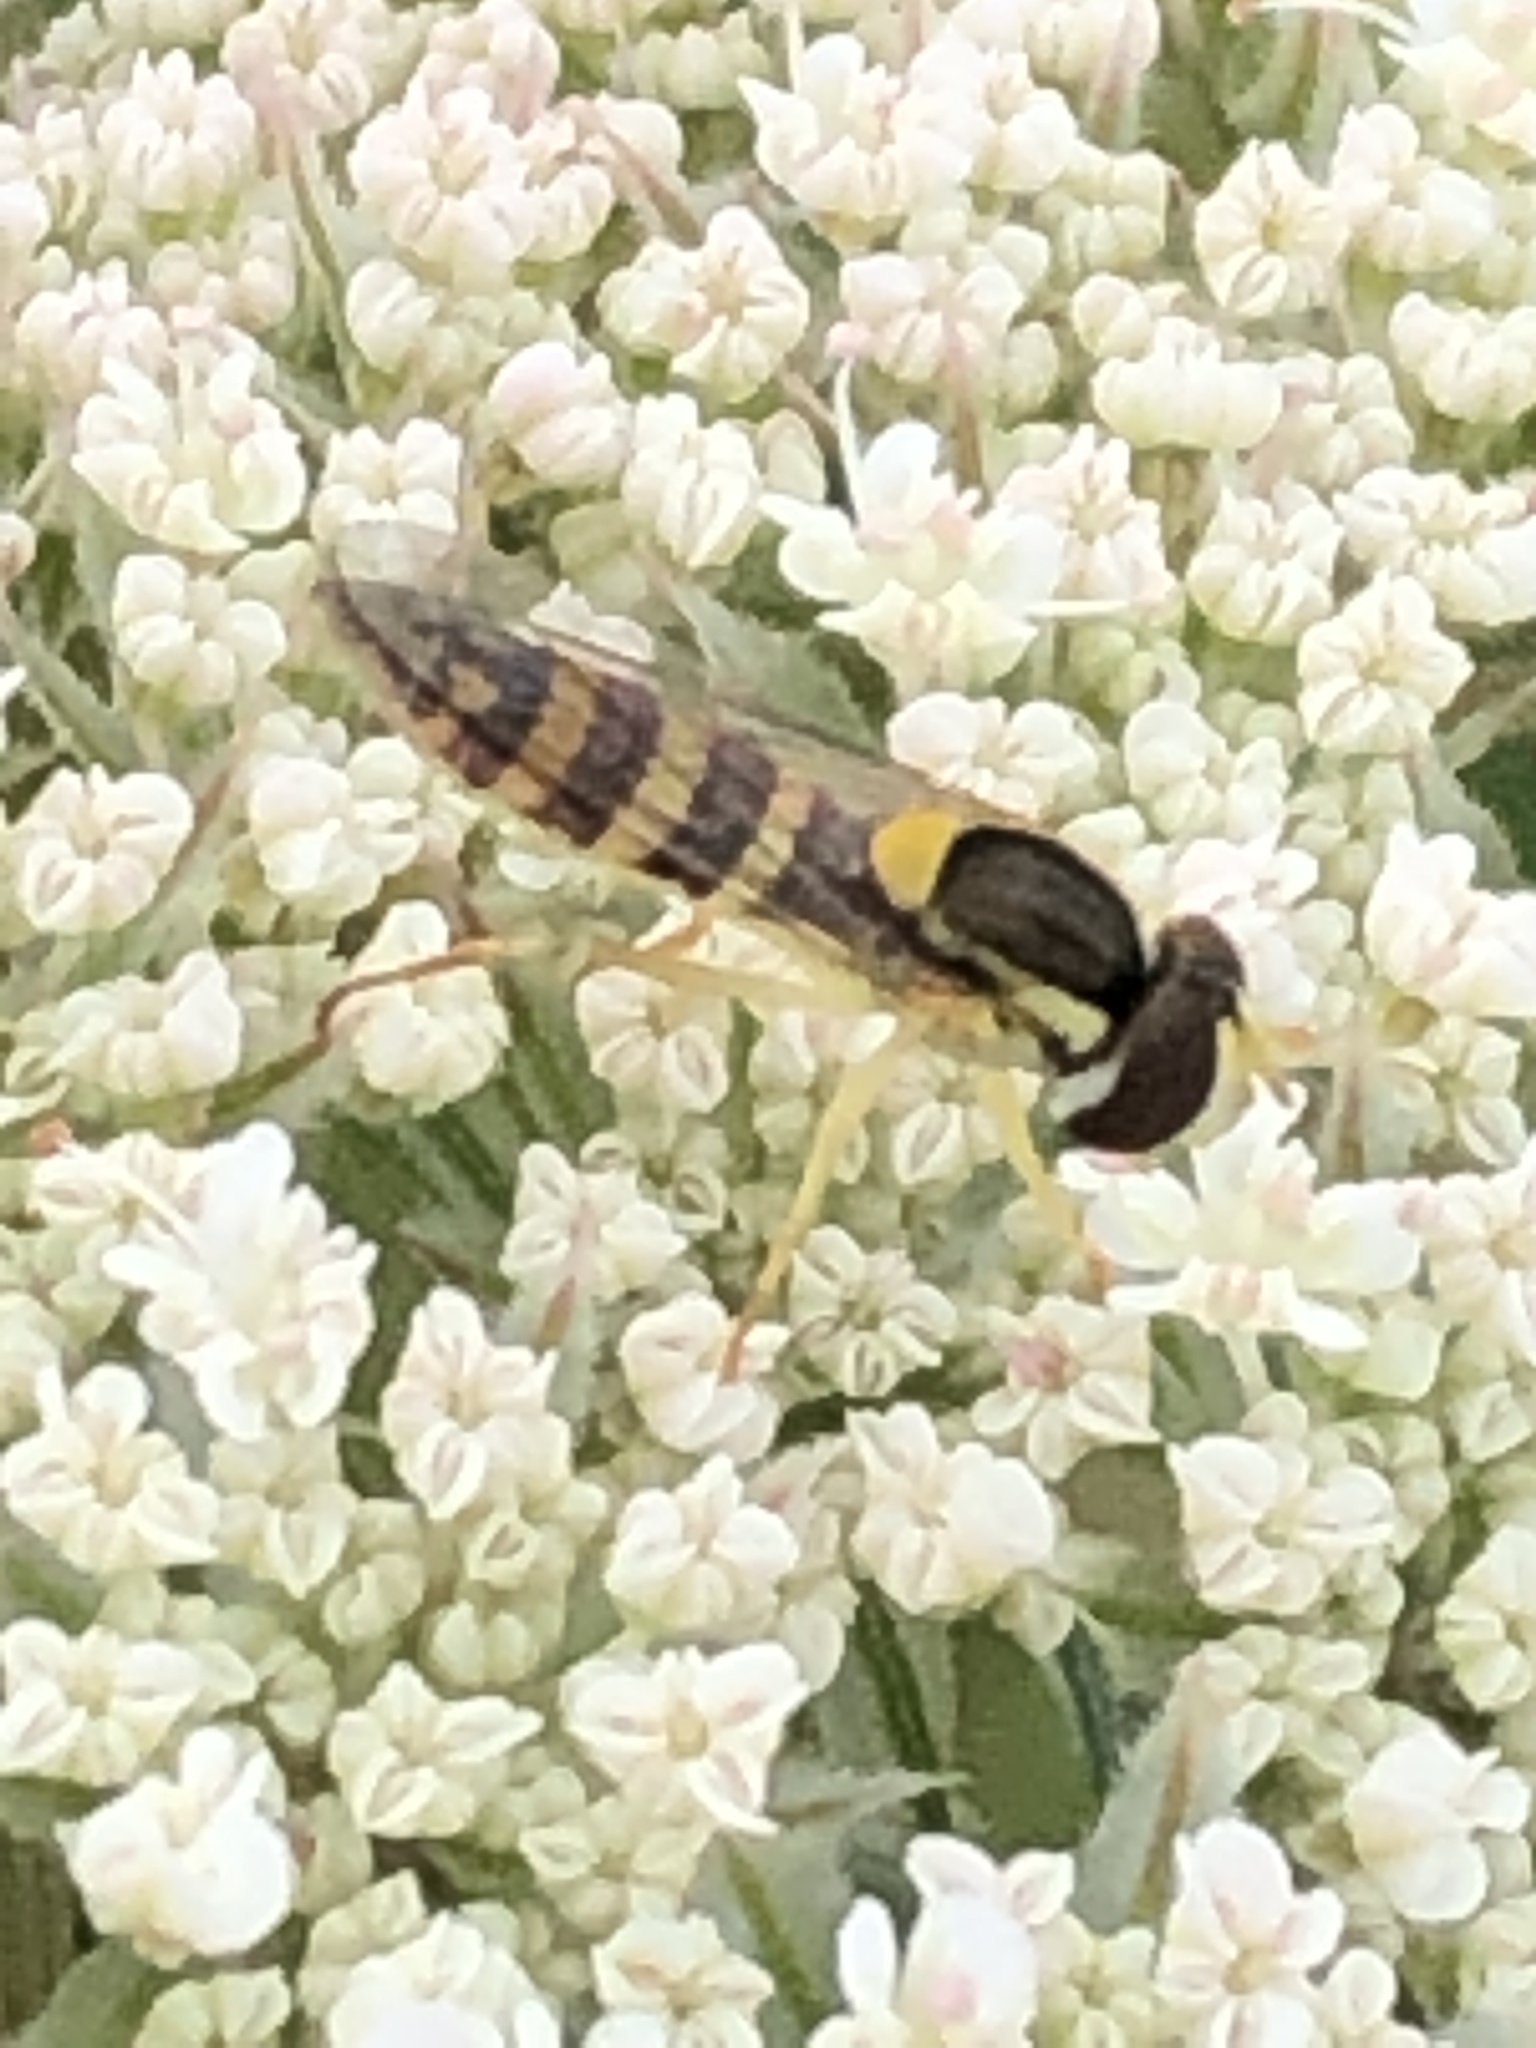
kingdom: Animalia
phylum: Arthropoda
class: Insecta
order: Diptera
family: Syrphidae
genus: Sphaerophoria
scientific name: Sphaerophoria
